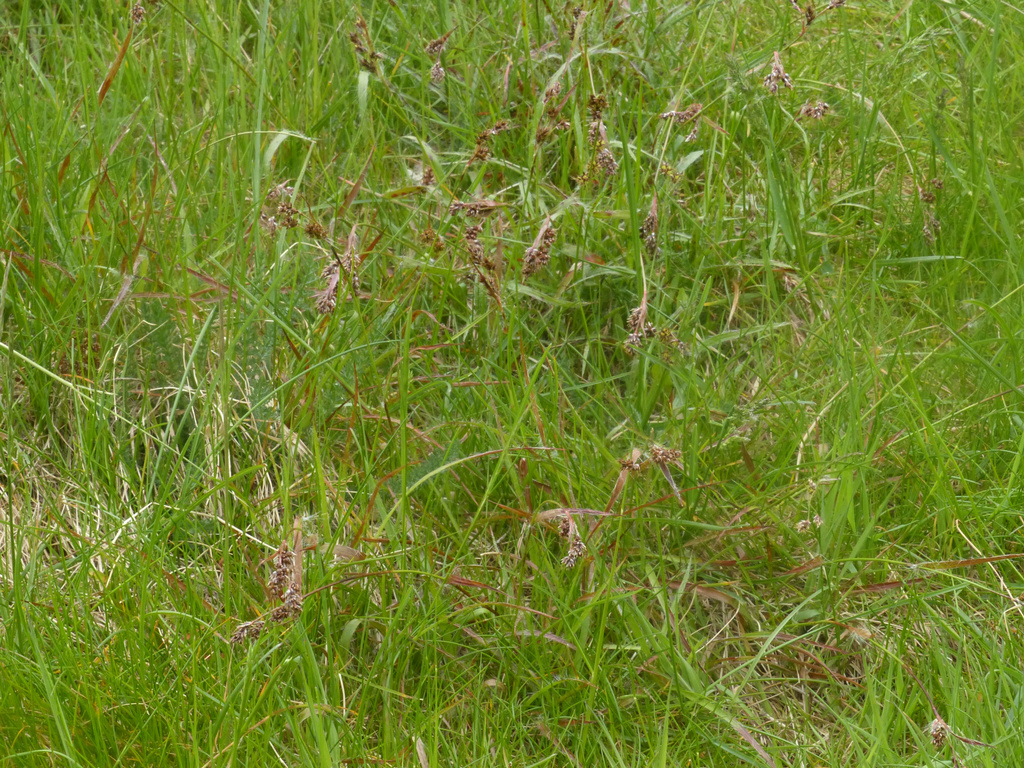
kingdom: Plantae
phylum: Tracheophyta
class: Liliopsida
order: Poales
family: Juncaceae
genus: Luzula
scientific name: Luzula campestris
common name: Field wood-rush
